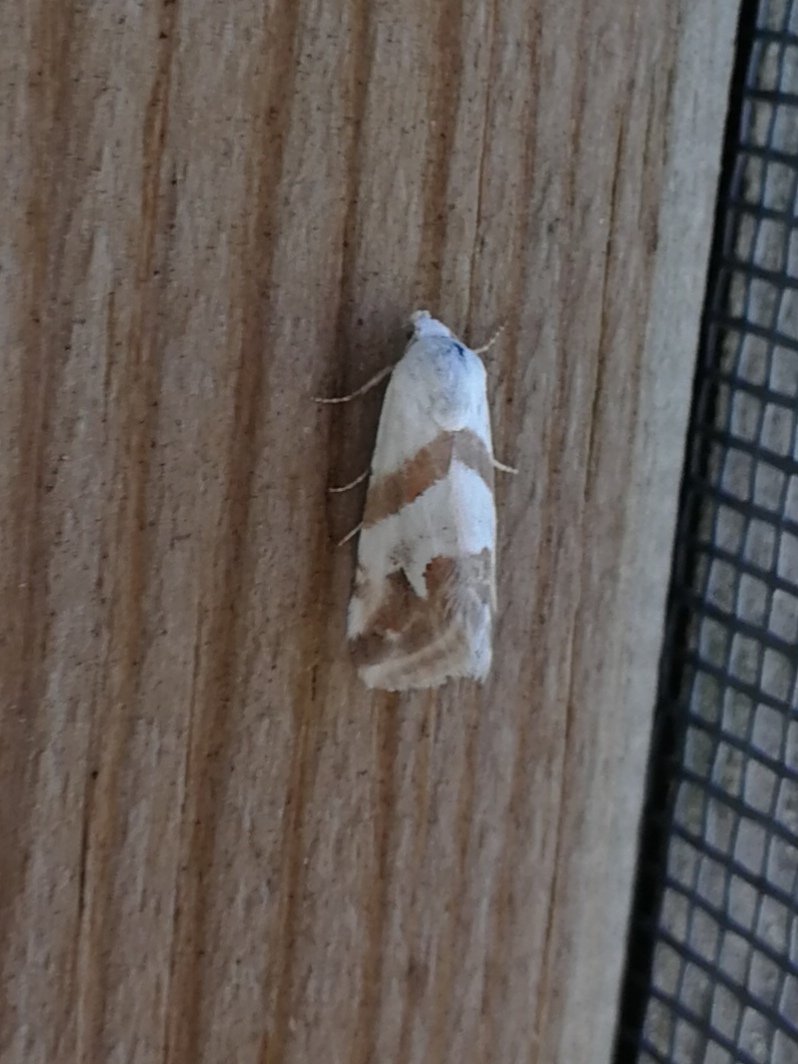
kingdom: Animalia
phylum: Arthropoda
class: Insecta
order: Lepidoptera
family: Noctuidae
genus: Eublemma
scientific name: Eublemma candidana
